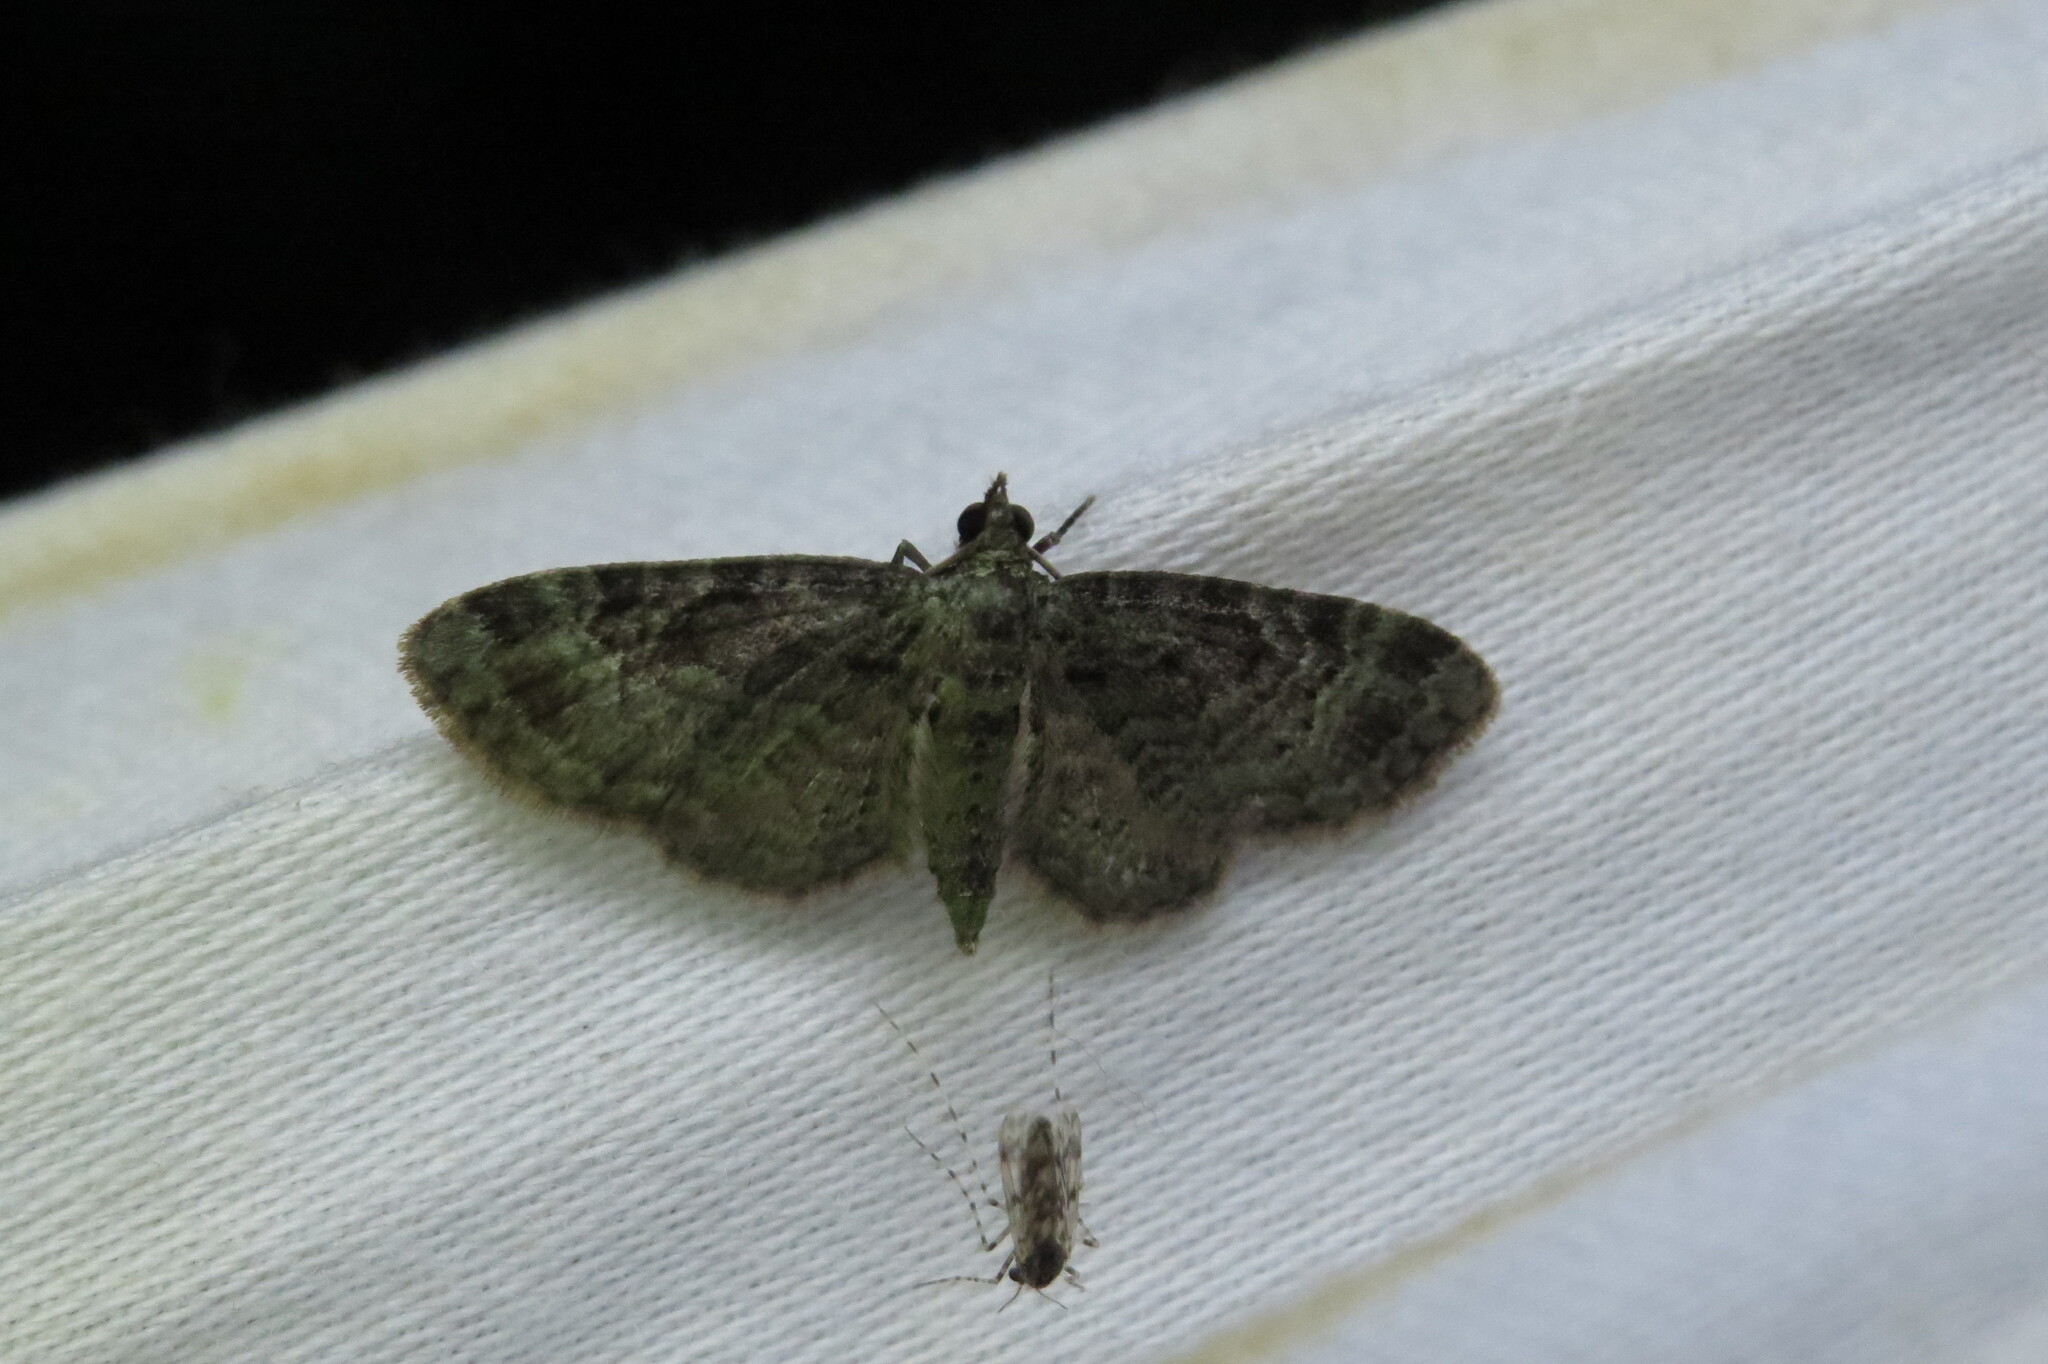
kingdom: Animalia
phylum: Arthropoda
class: Insecta
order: Lepidoptera
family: Geometridae
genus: Pasiphila
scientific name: Pasiphila rectangulata
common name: Green pug
